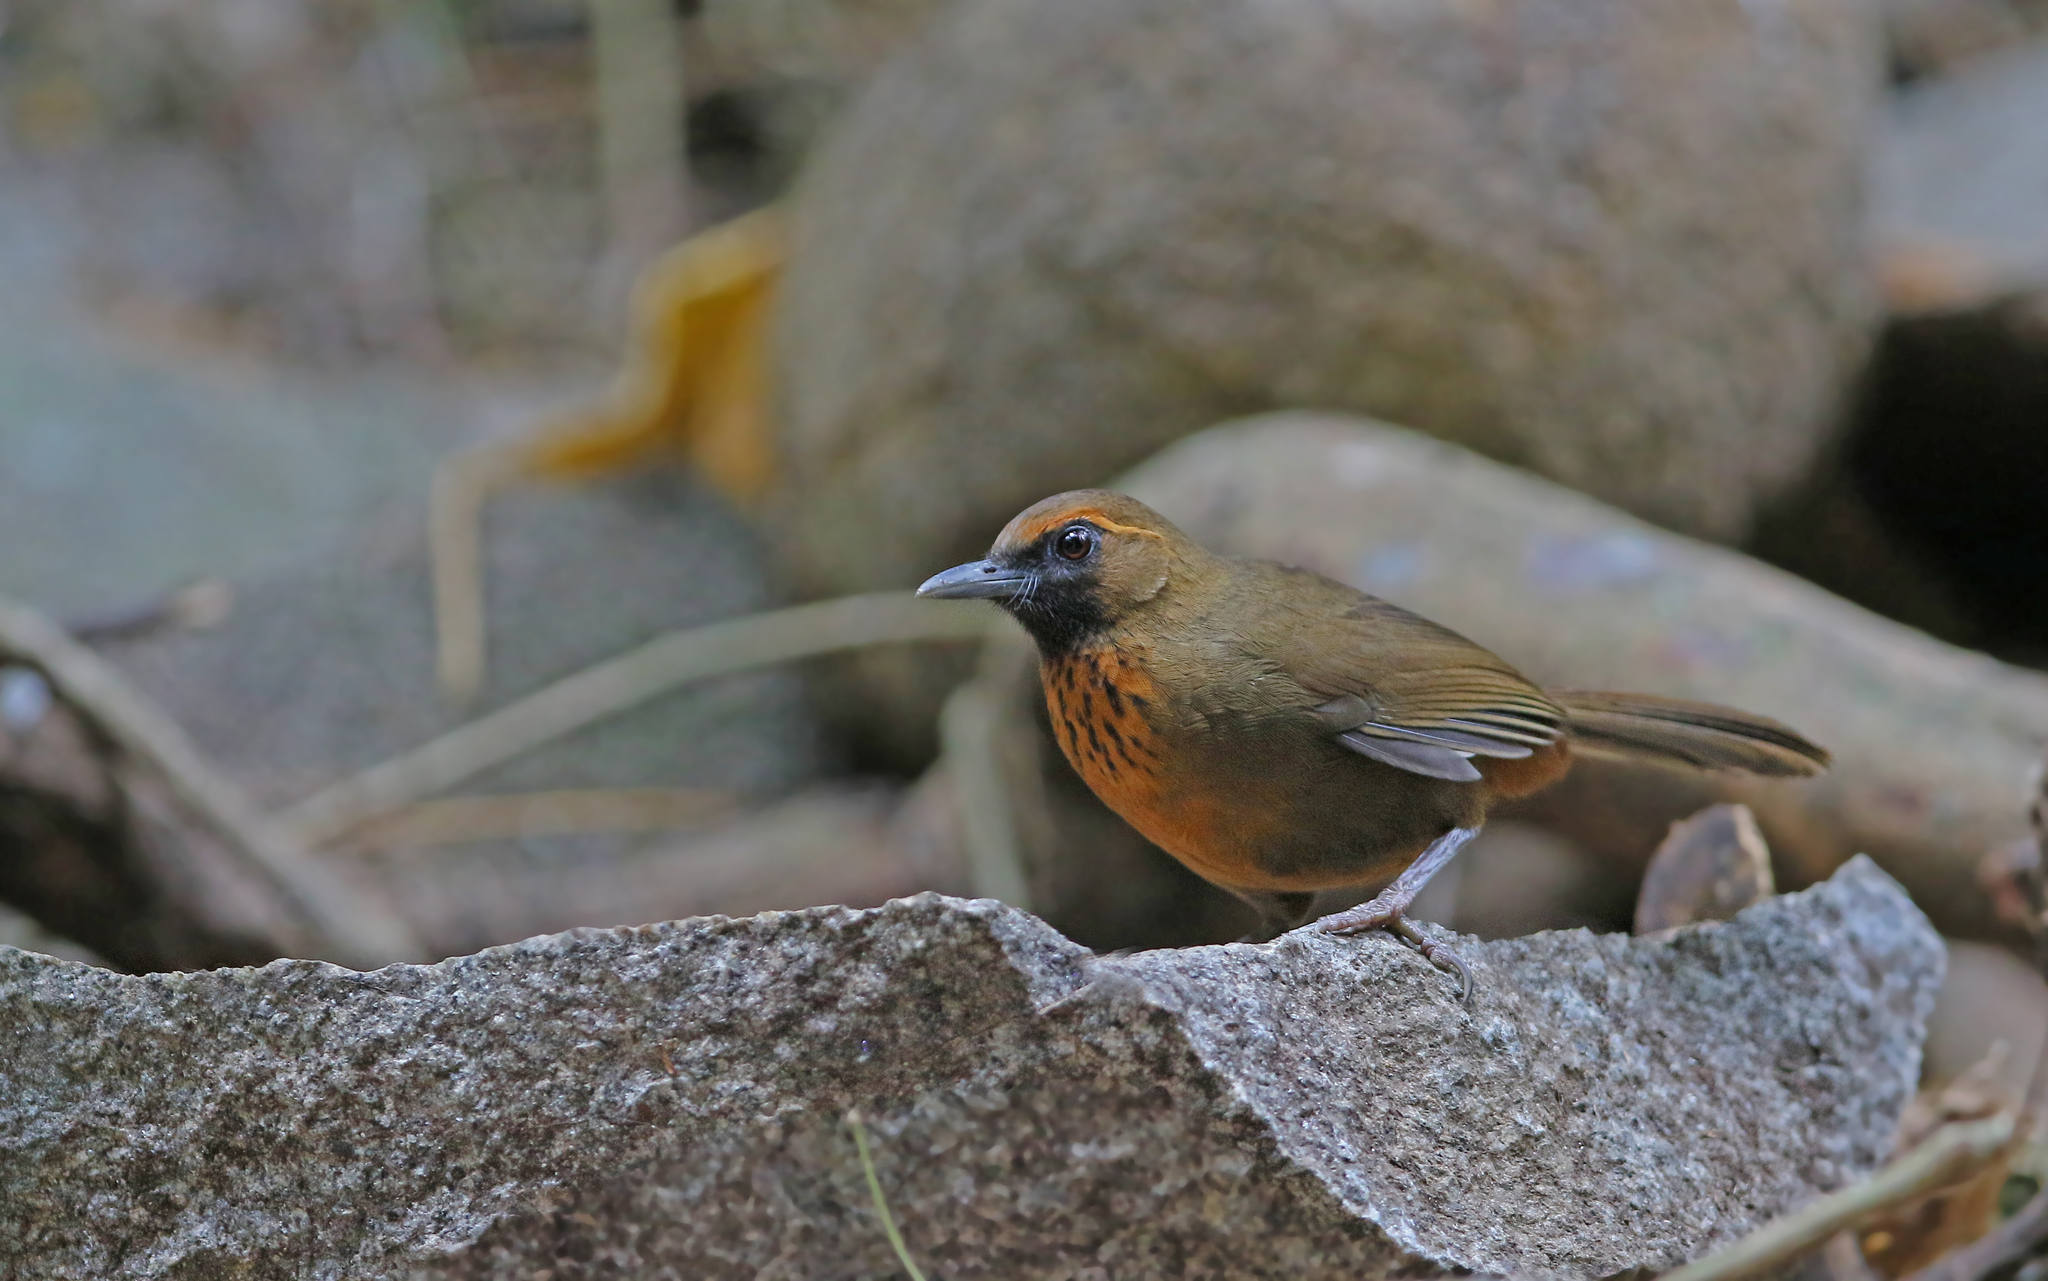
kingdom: Animalia
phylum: Chordata
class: Aves
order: Passeriformes
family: Leiothrichidae
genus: Garrulax
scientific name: Garrulax annamensis
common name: Orange-breasted laughingthrush
